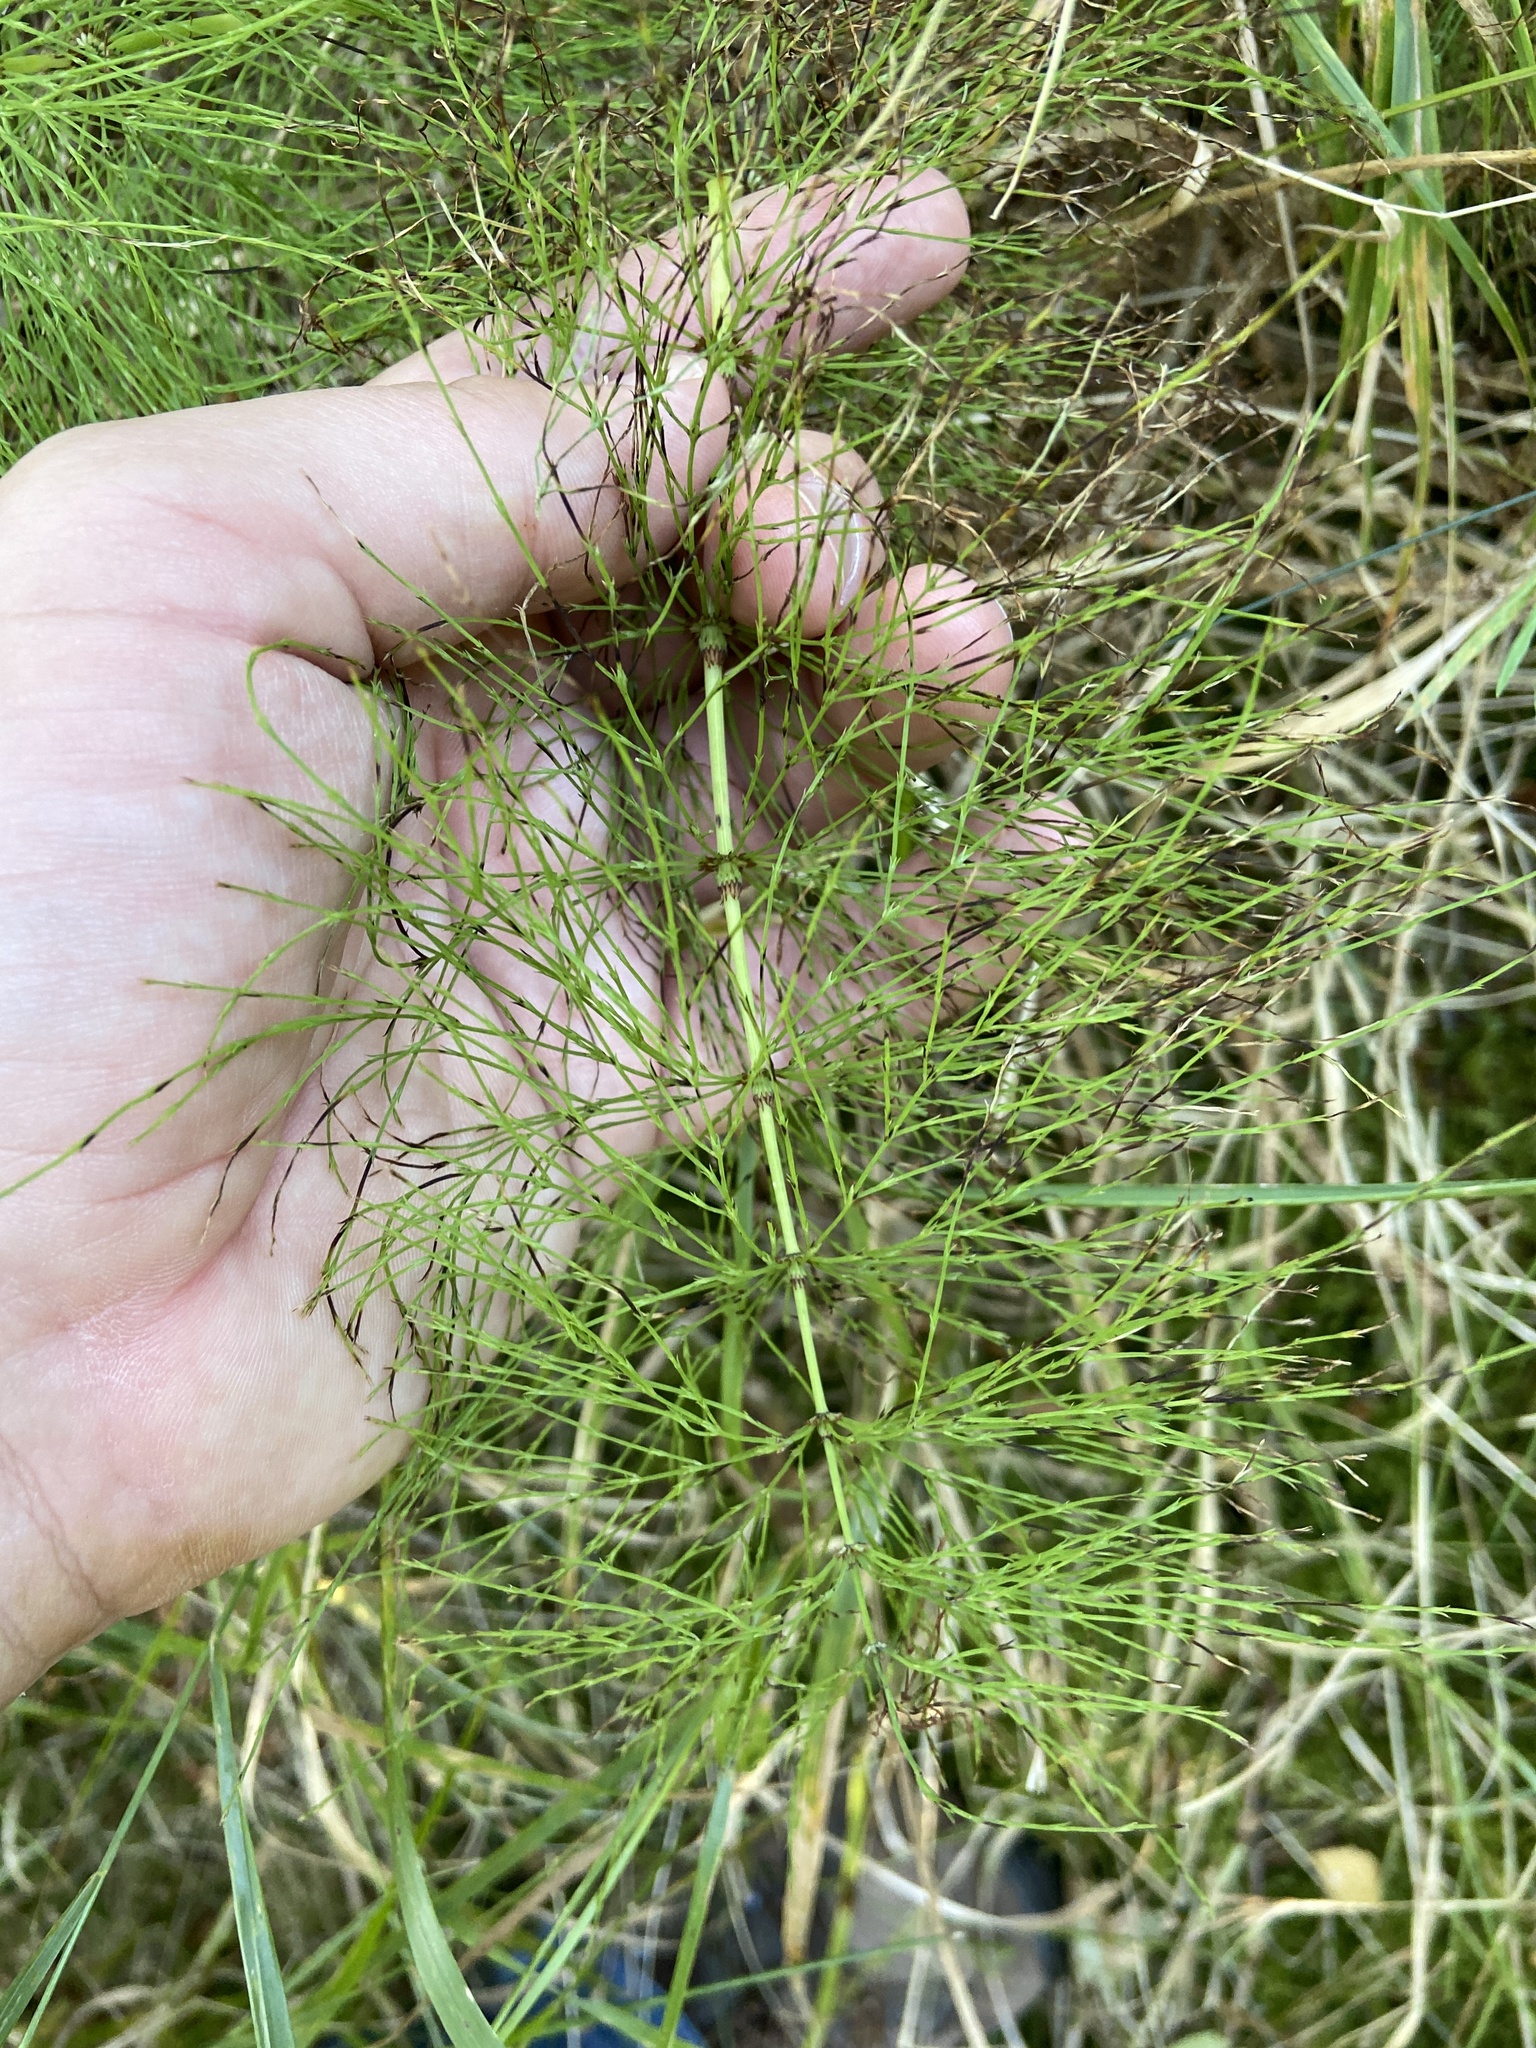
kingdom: Plantae
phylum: Tracheophyta
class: Polypodiopsida
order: Equisetales
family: Equisetaceae
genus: Equisetum
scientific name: Equisetum sylvaticum
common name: Wood horsetail
